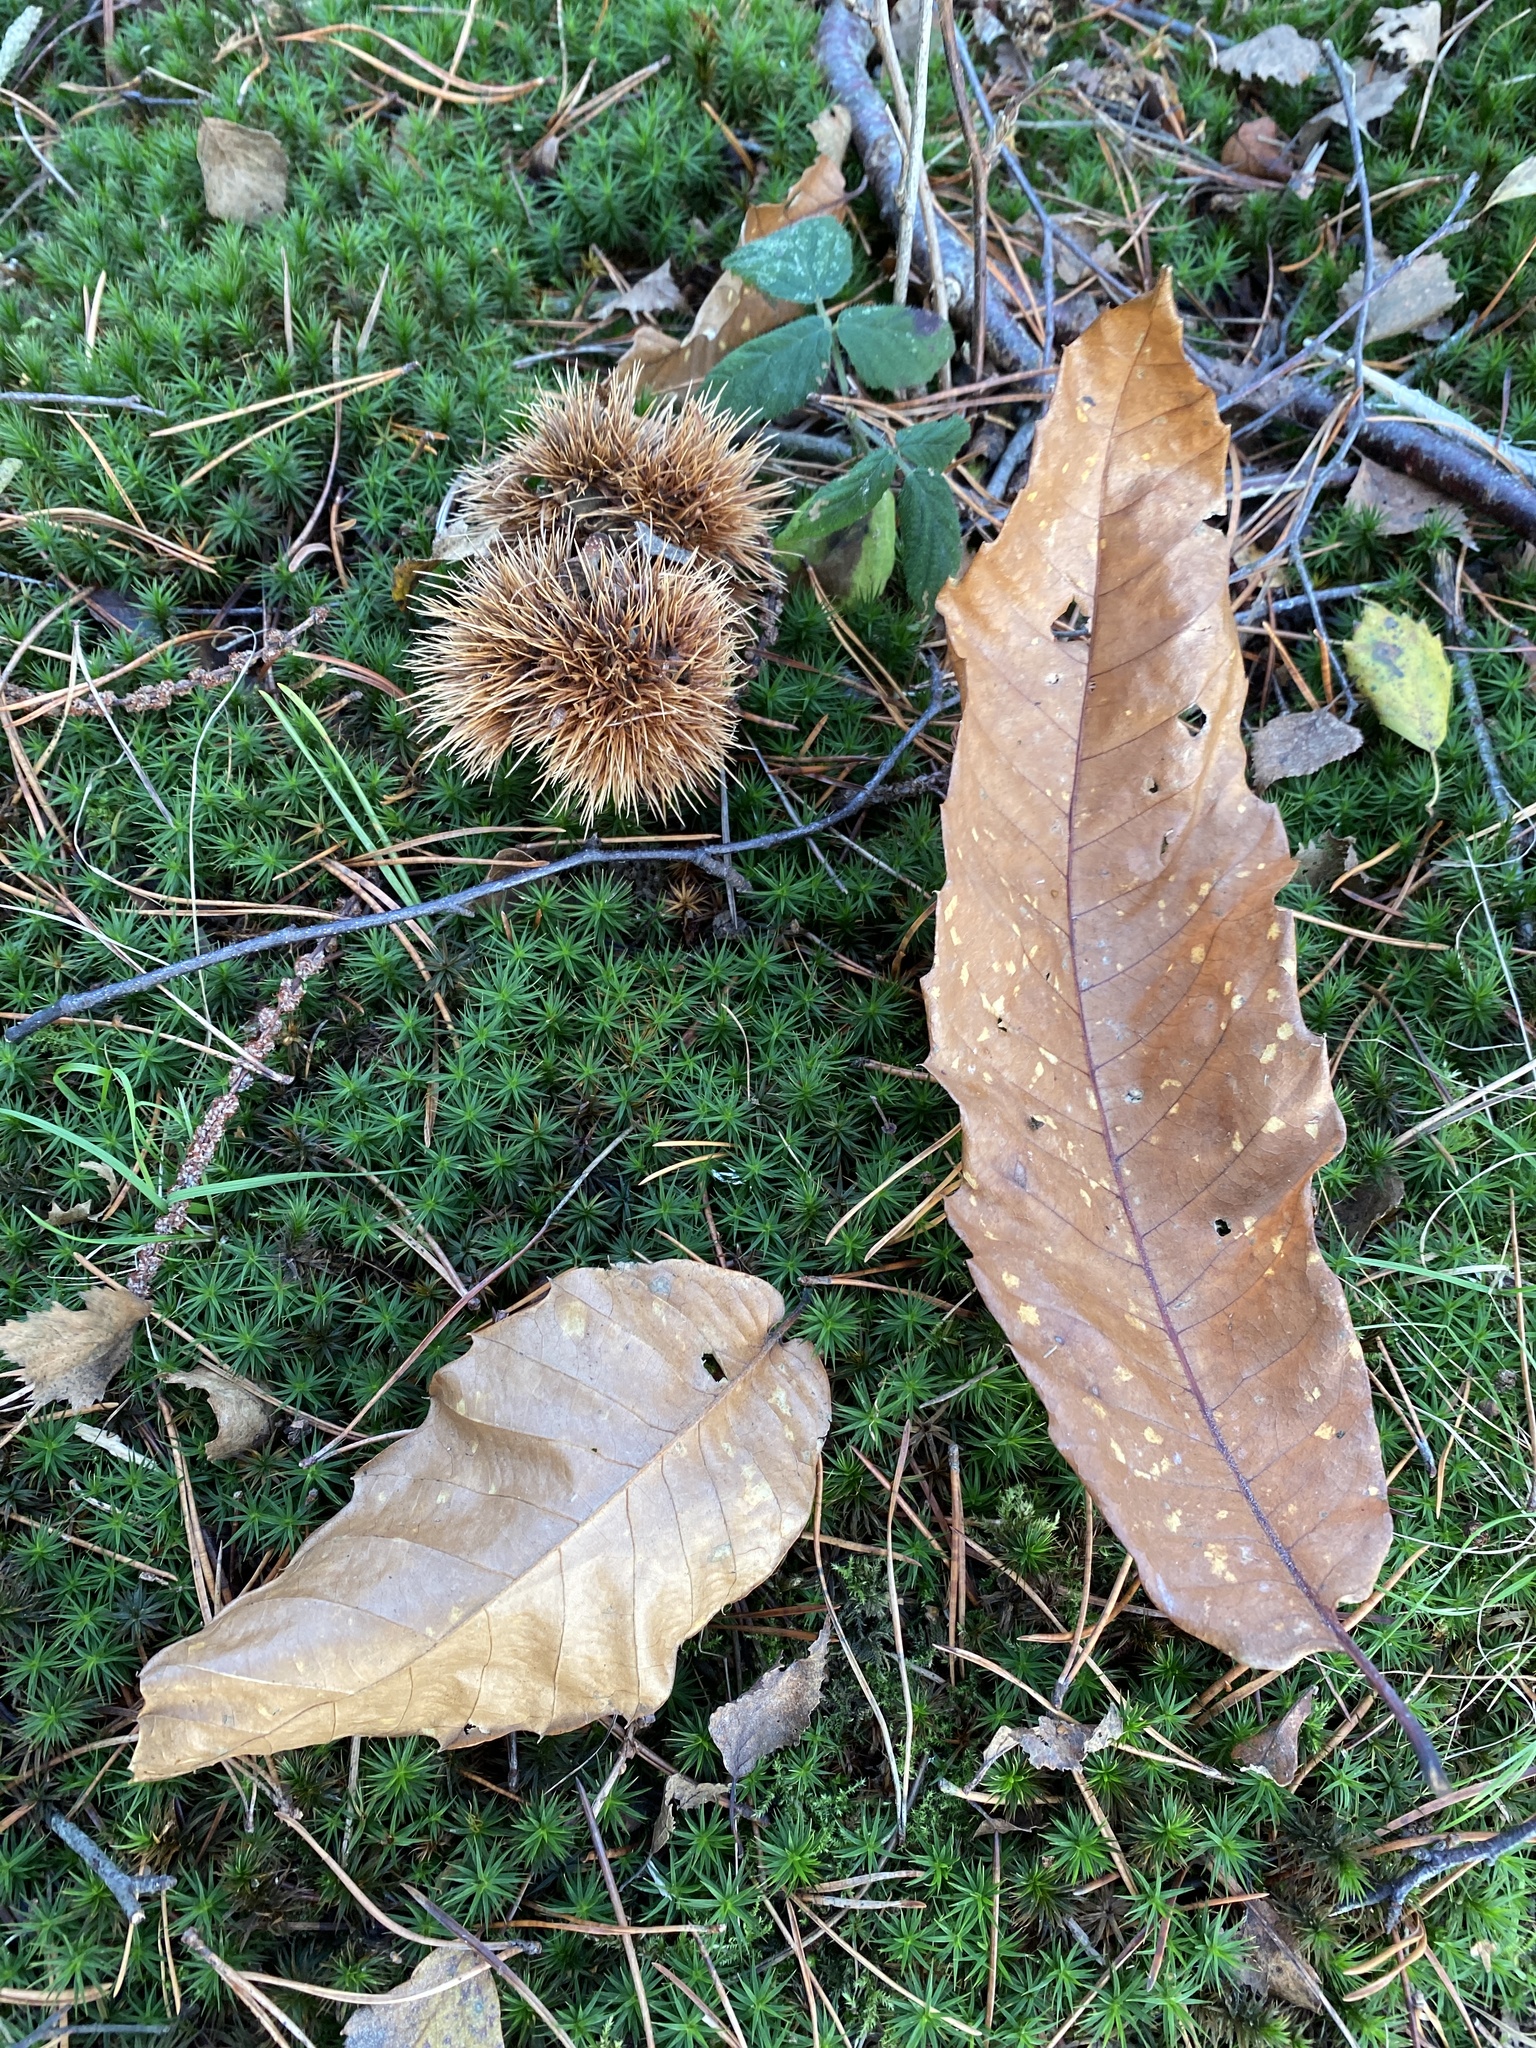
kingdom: Plantae
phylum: Tracheophyta
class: Magnoliopsida
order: Fagales
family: Fagaceae
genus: Castanea
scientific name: Castanea sativa
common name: Sweet chestnut
